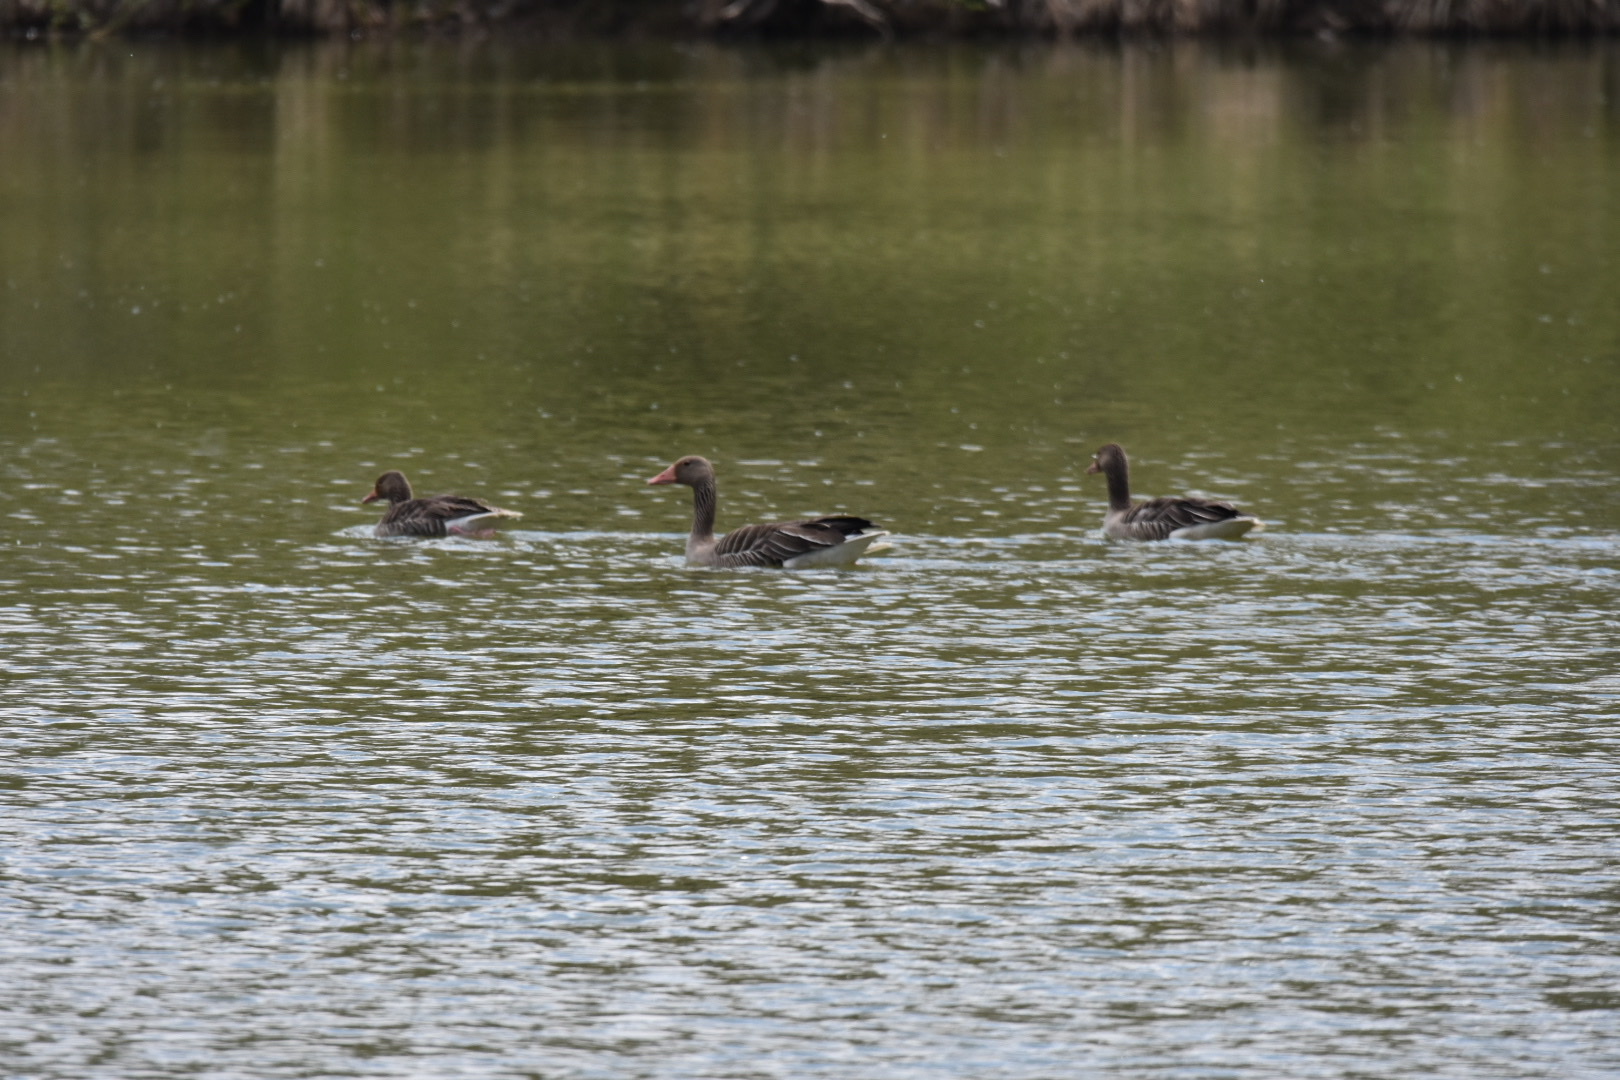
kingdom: Animalia
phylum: Chordata
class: Aves
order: Anseriformes
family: Anatidae
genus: Anser
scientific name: Anser anser
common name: Greylag goose
